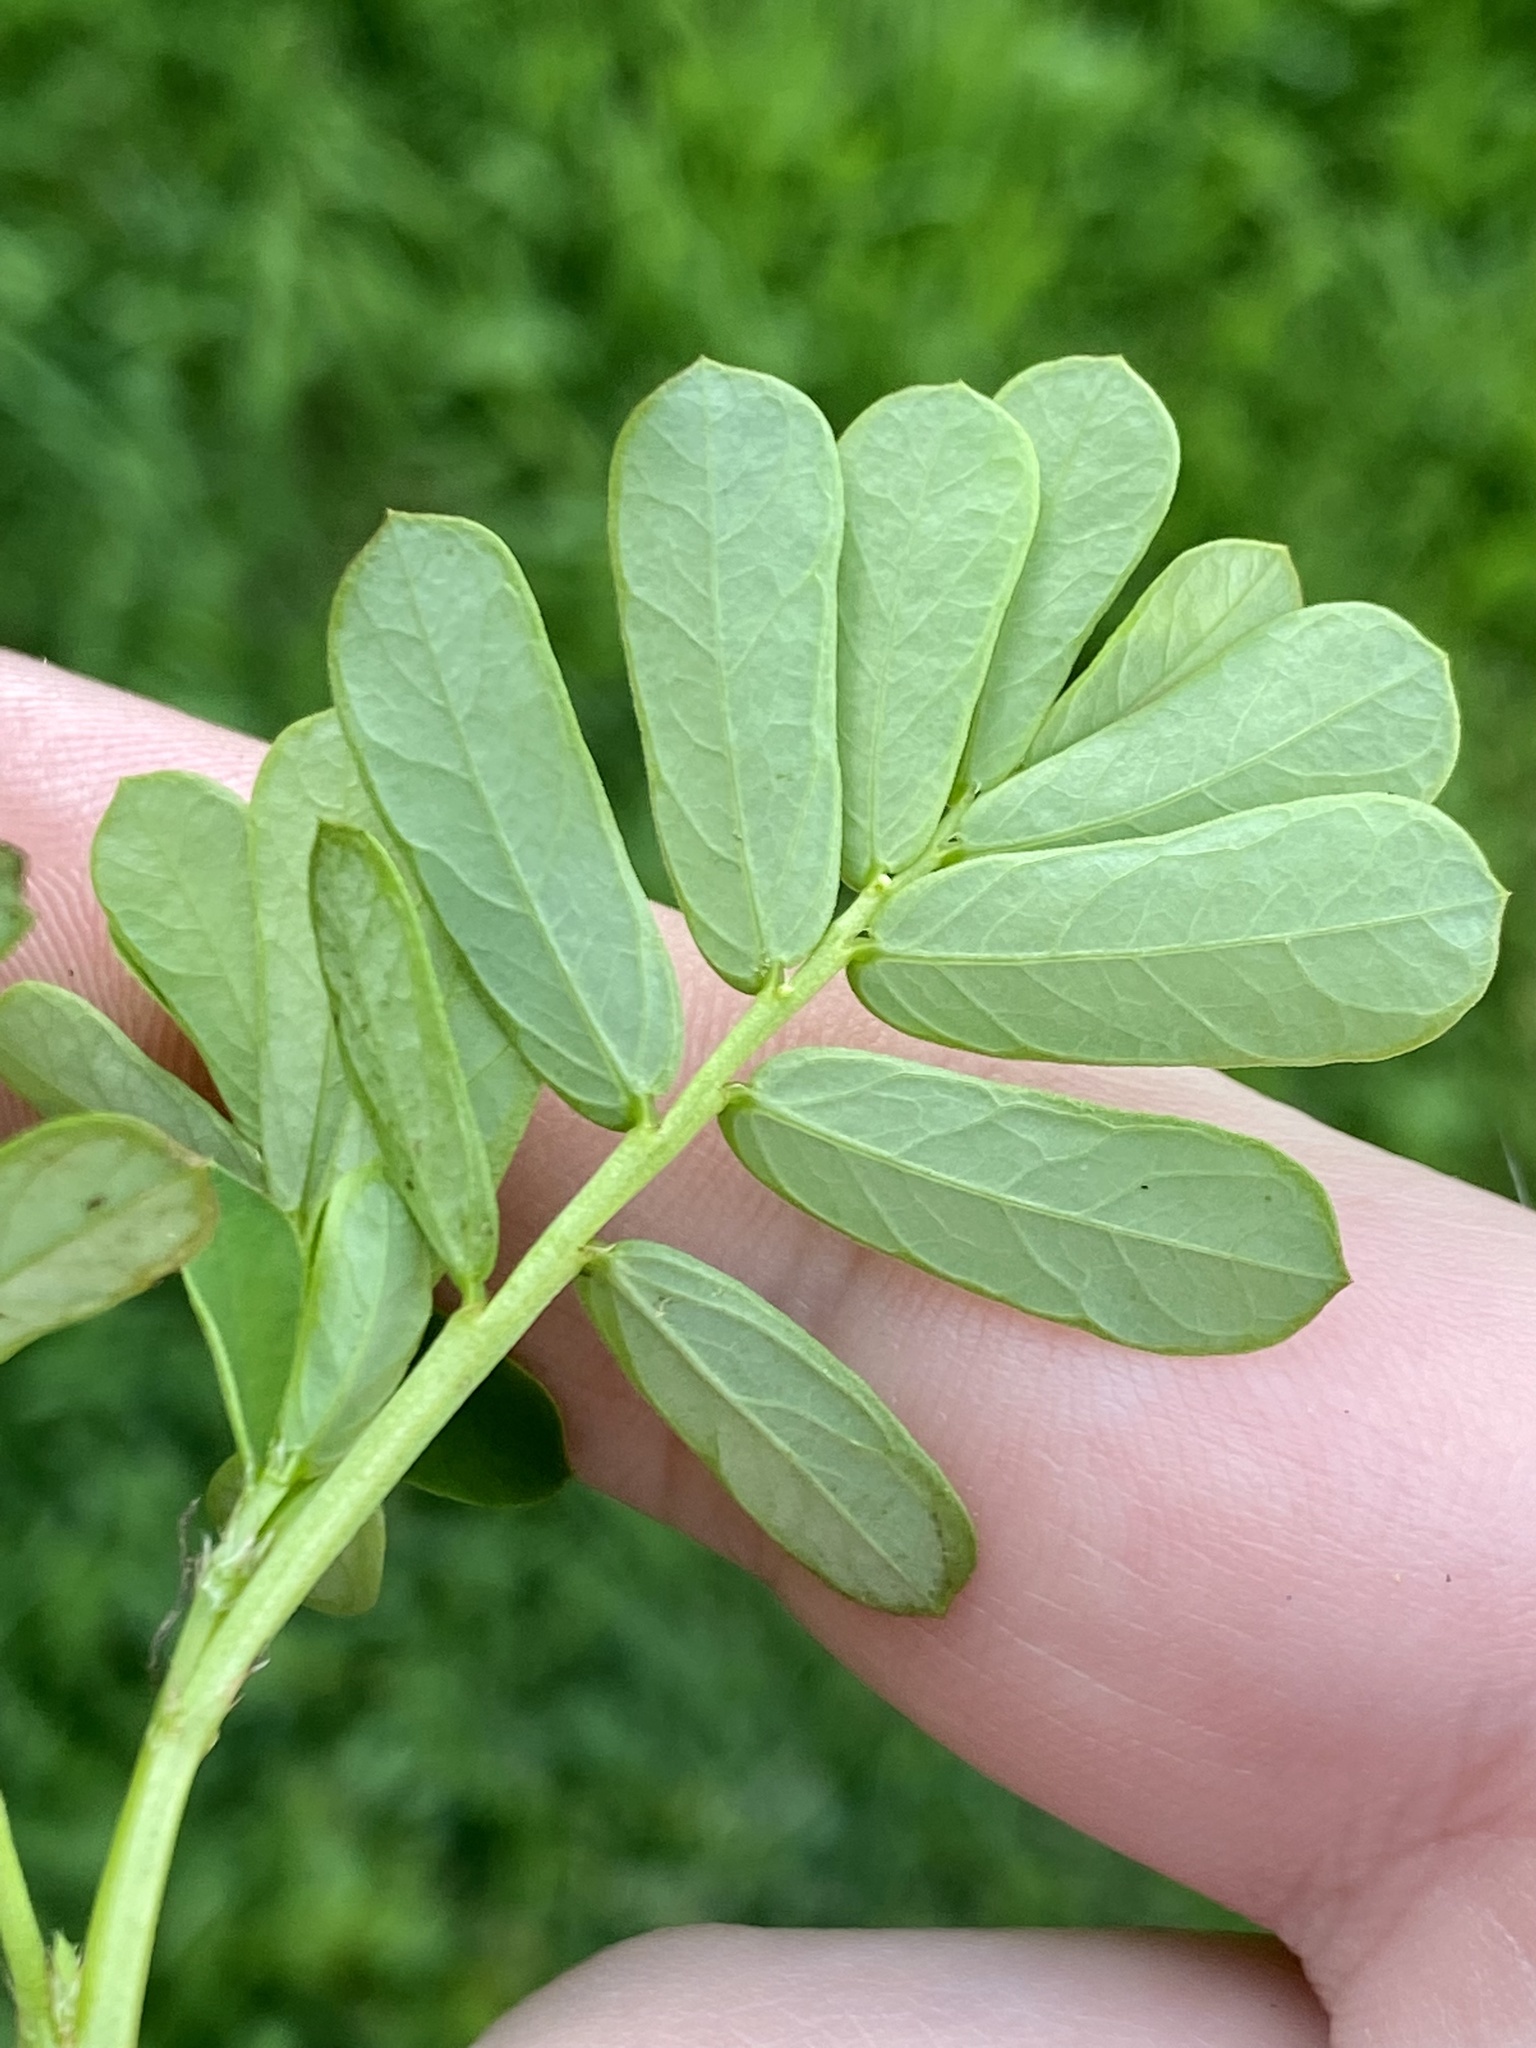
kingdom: Plantae
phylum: Tracheophyta
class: Magnoliopsida
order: Malpighiales
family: Phyllanthaceae
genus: Phyllanthus
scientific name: Phyllanthus urinaria
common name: Chamber bitter
